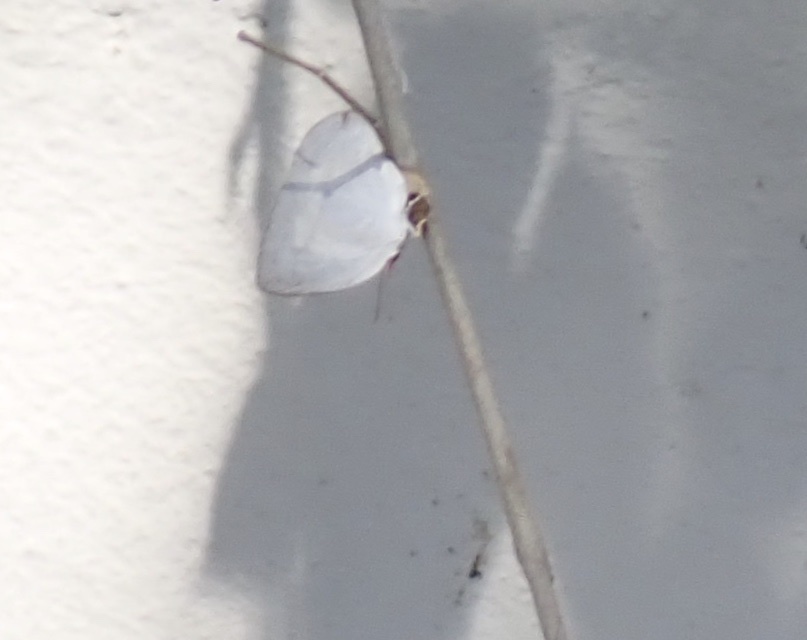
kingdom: Animalia
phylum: Arthropoda
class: Insecta
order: Lepidoptera
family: Lycaenidae
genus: Curetis
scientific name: Curetis thetis
